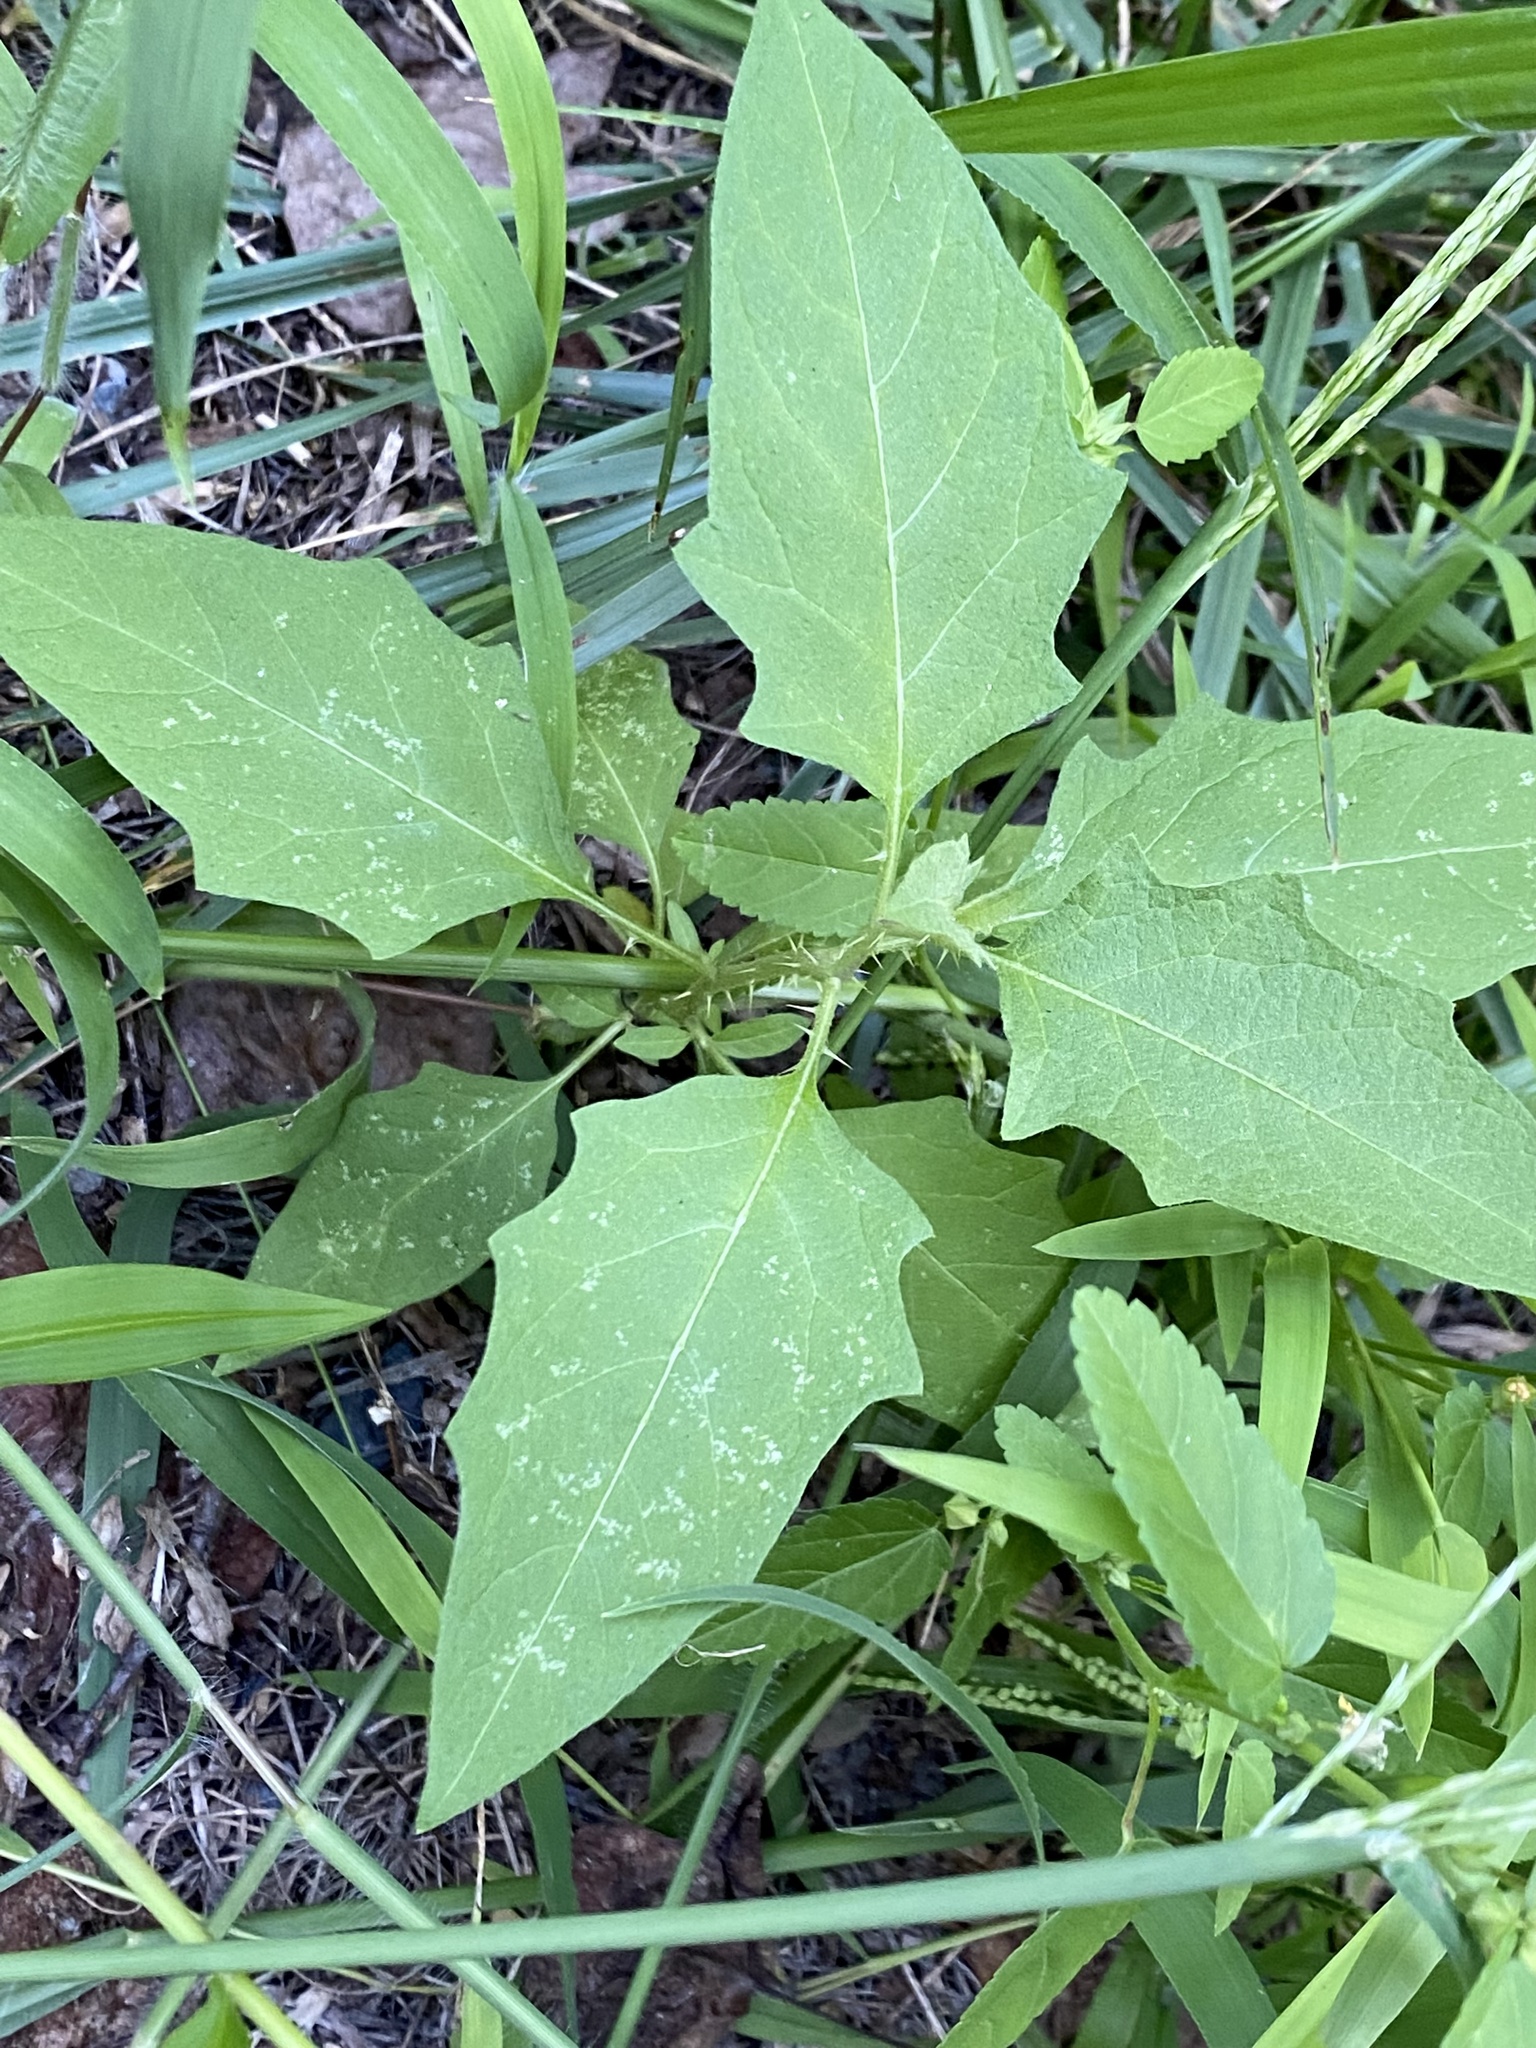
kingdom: Plantae
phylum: Tracheophyta
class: Magnoliopsida
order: Solanales
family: Solanaceae
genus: Solanum
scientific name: Solanum carolinense
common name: Horse-nettle
